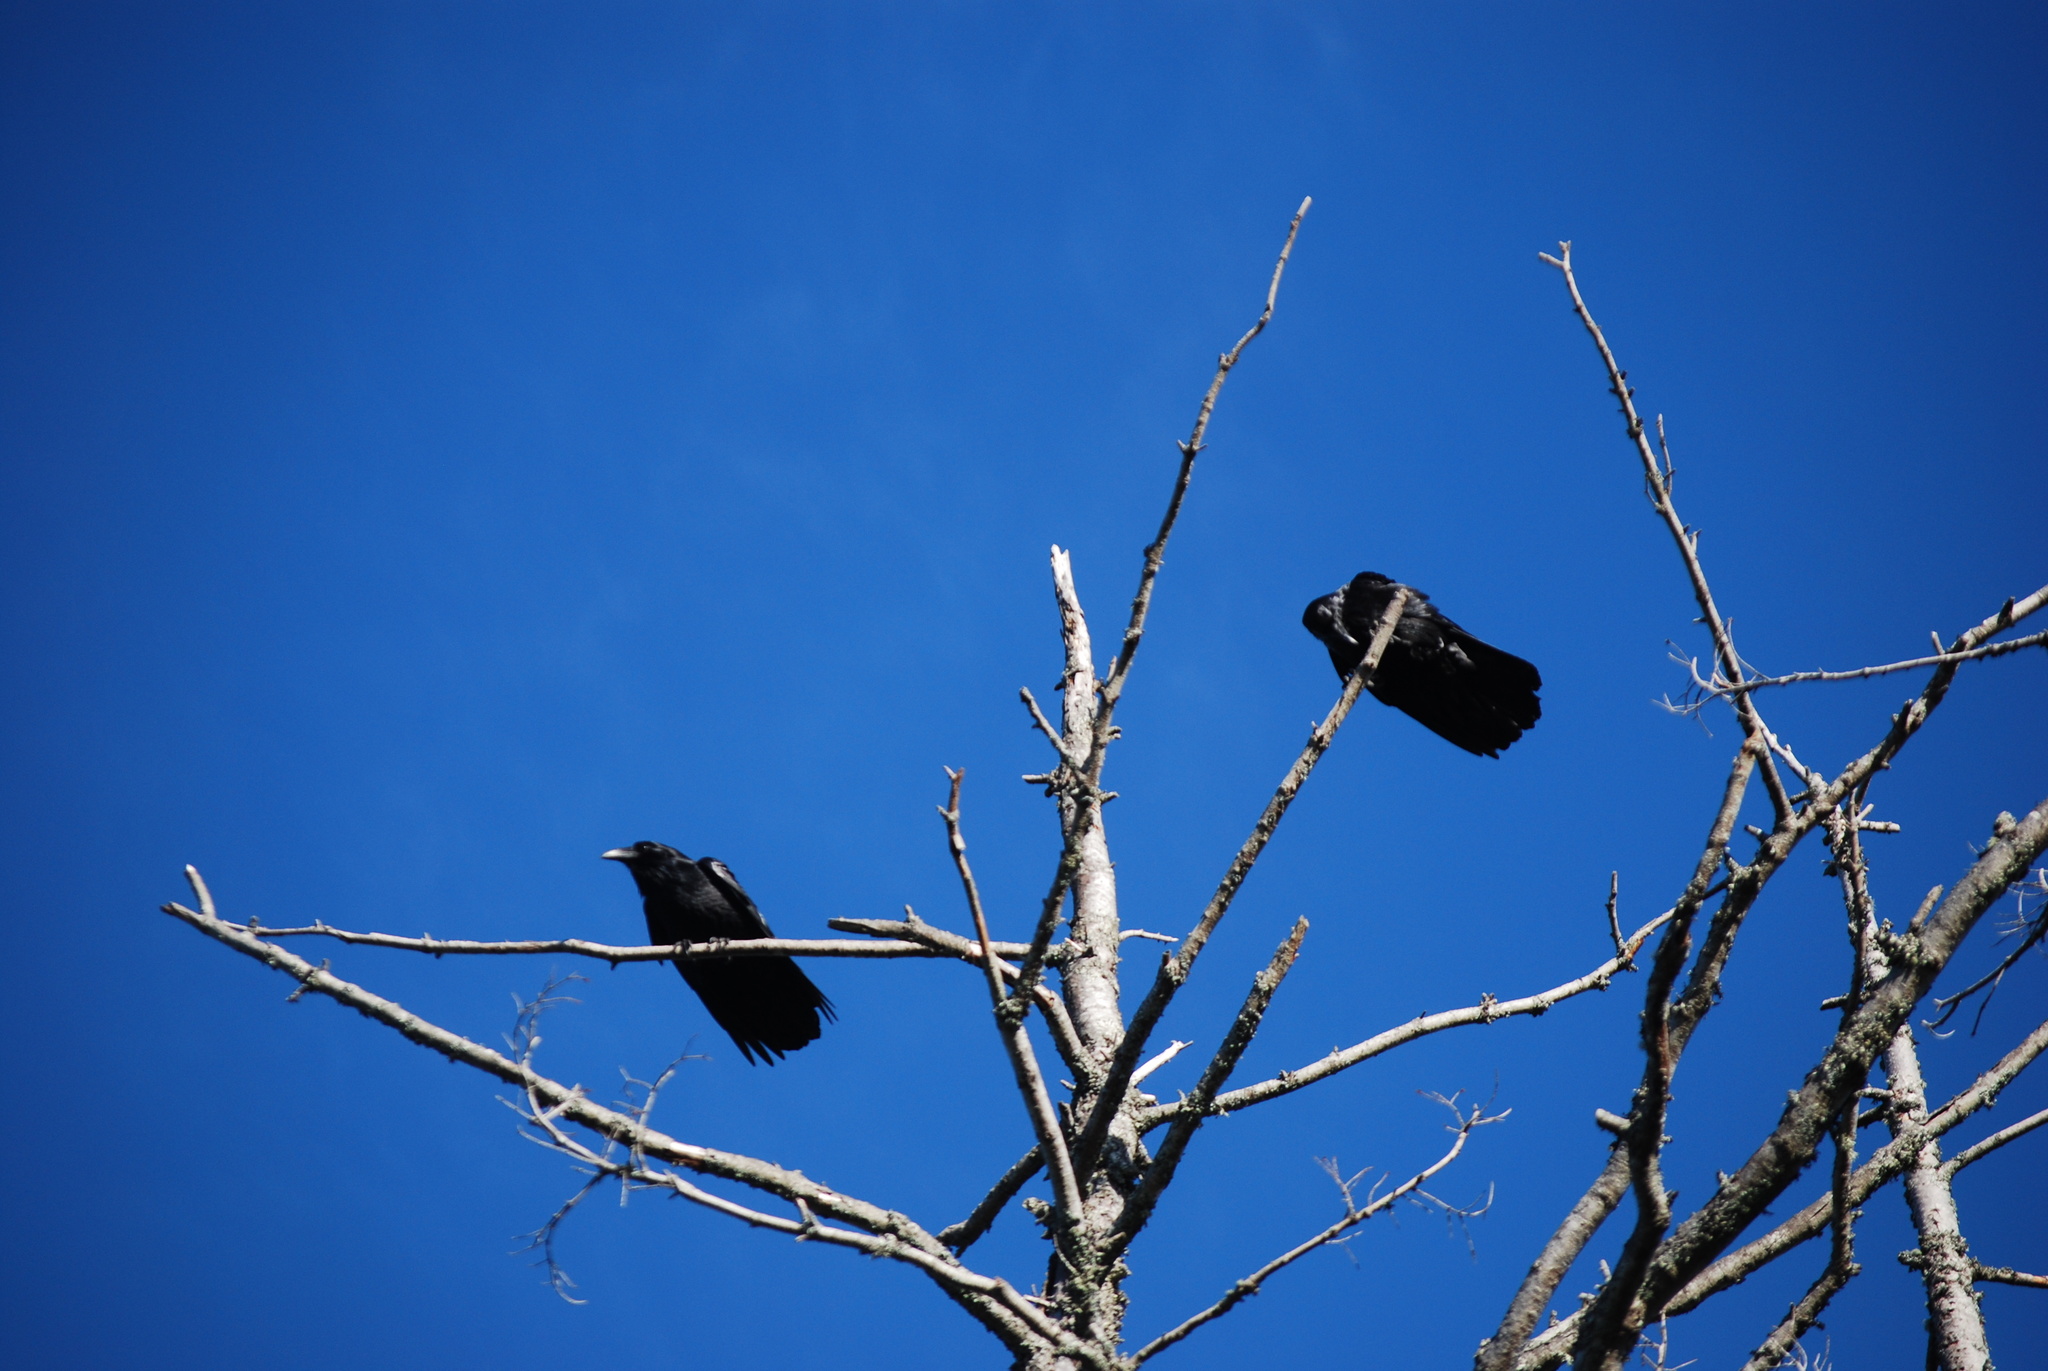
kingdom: Animalia
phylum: Chordata
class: Aves
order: Passeriformes
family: Corvidae
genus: Corvus
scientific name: Corvus corax
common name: Common raven
